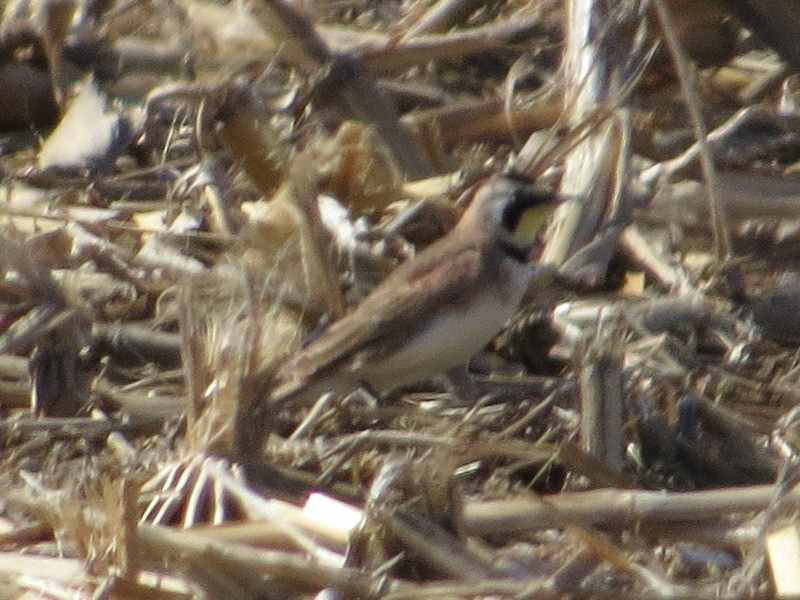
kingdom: Animalia
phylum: Chordata
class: Aves
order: Passeriformes
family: Alaudidae
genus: Eremophila
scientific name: Eremophila alpestris
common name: Horned lark
